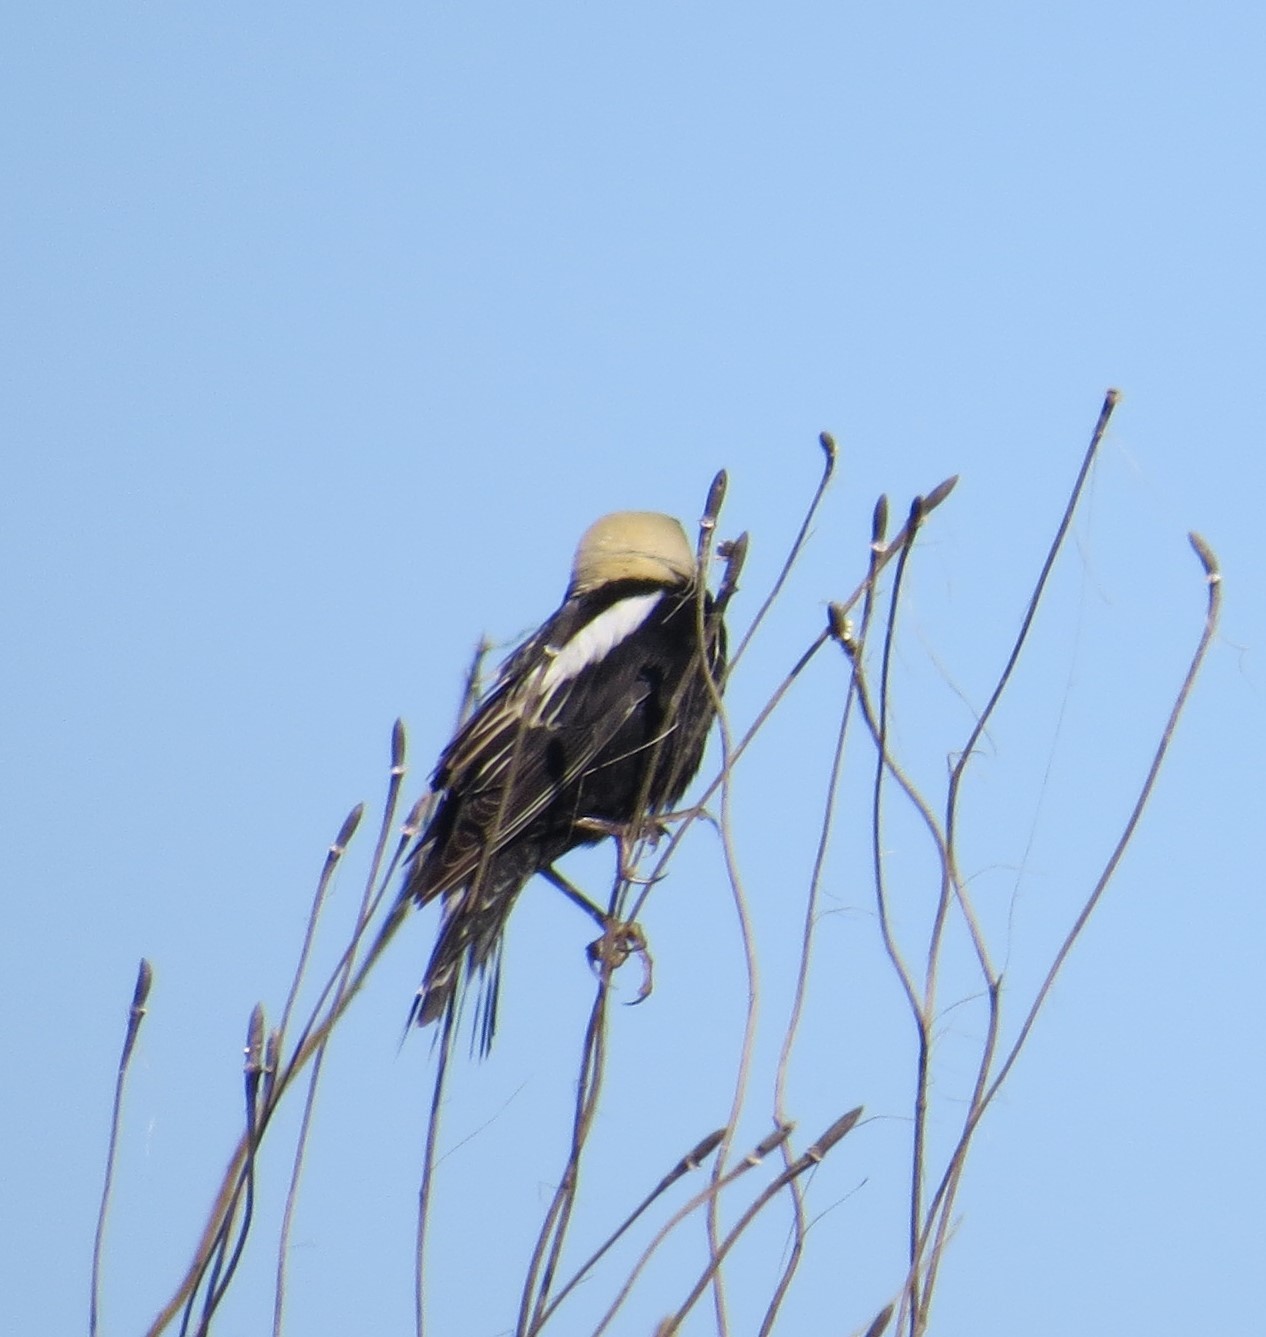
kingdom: Animalia
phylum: Chordata
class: Aves
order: Passeriformes
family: Icteridae
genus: Dolichonyx
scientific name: Dolichonyx oryzivorus
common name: Bobolink
